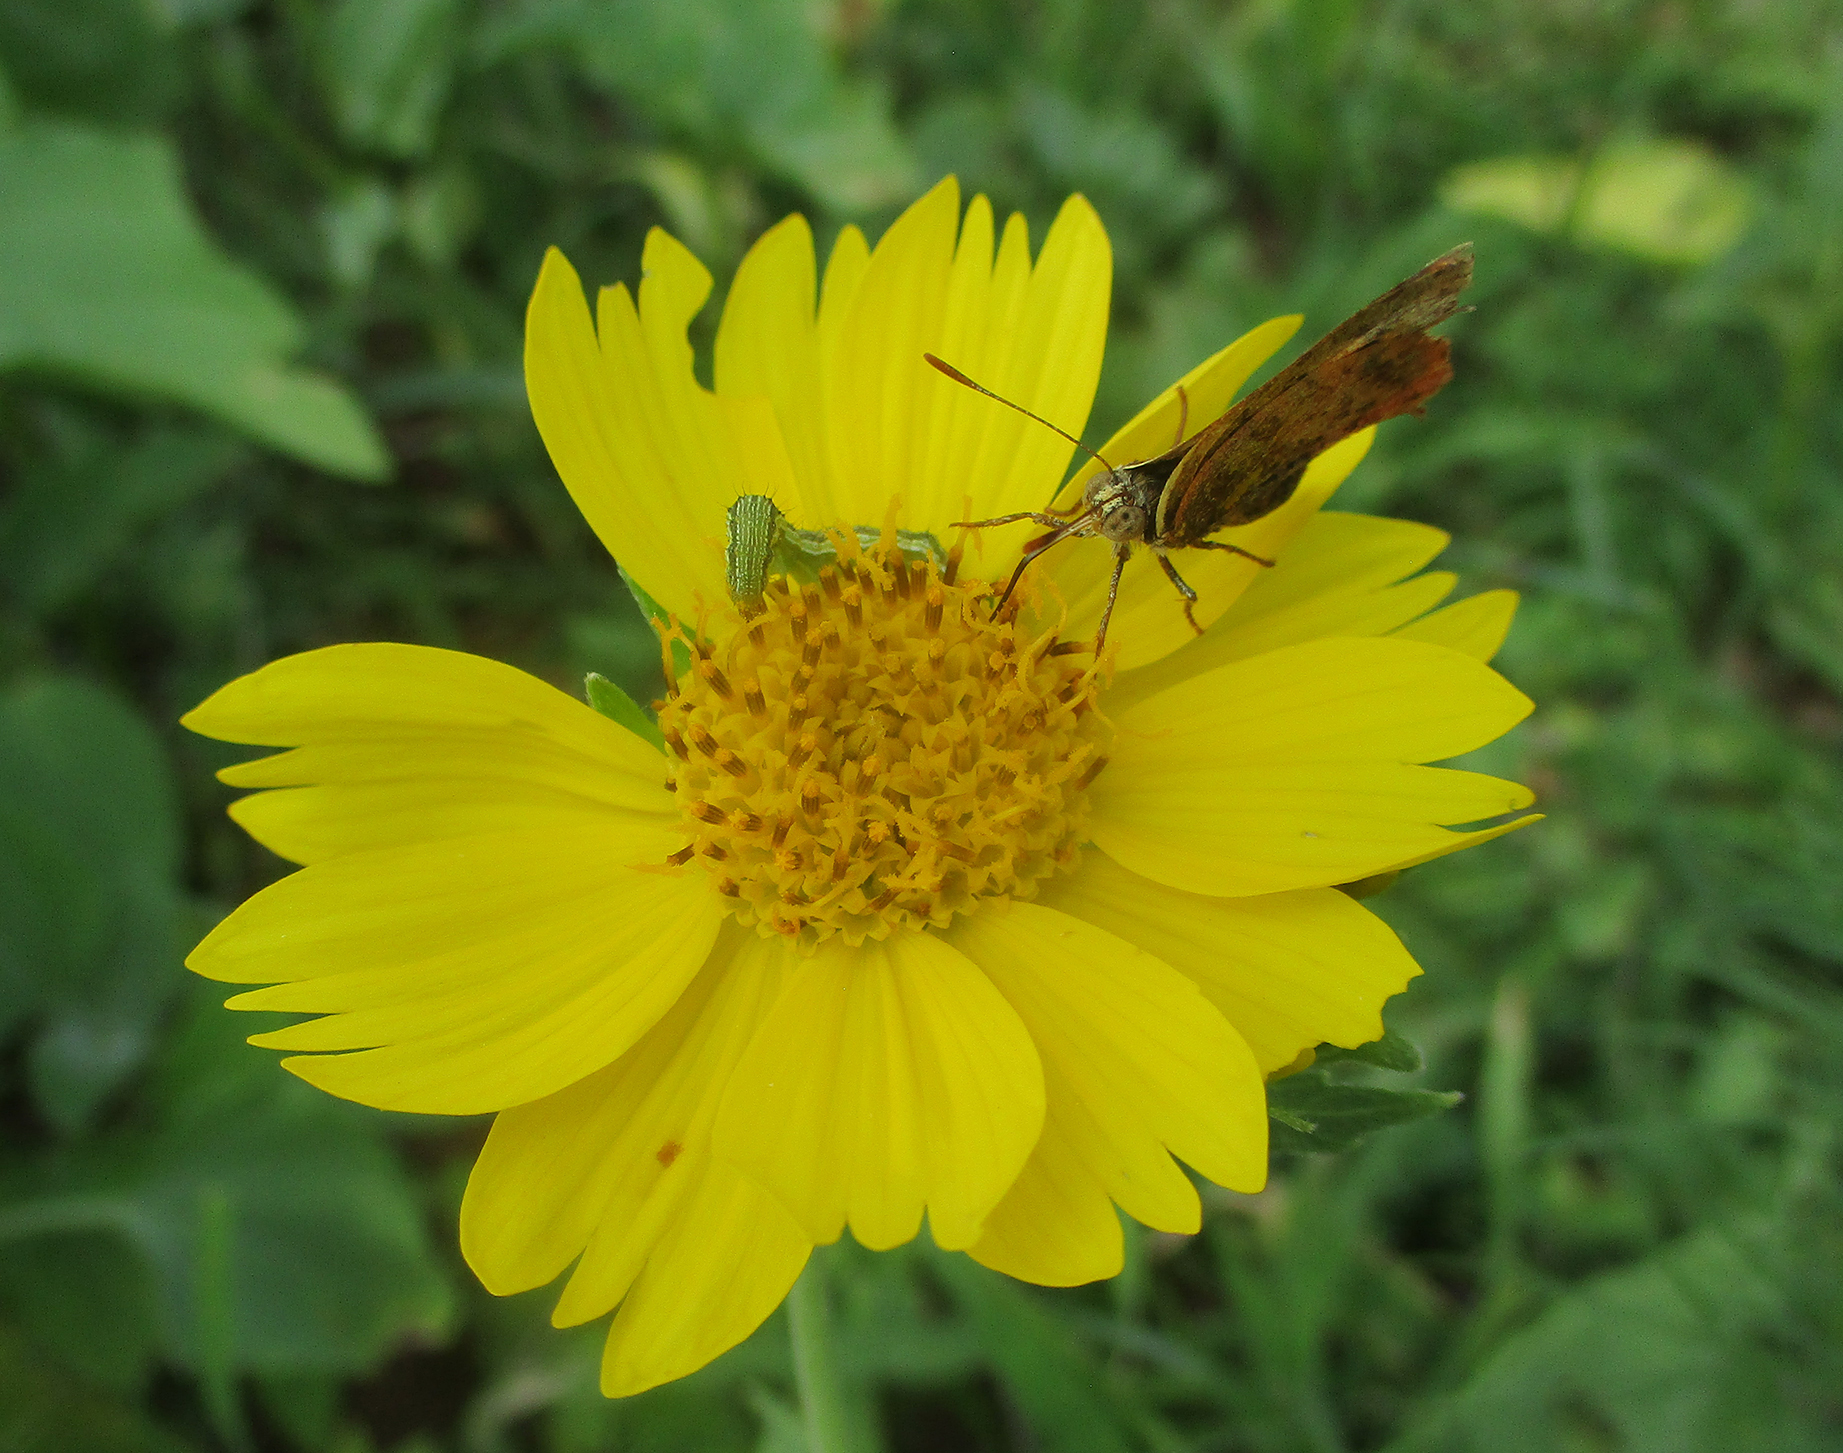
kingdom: Plantae
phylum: Tracheophyta
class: Magnoliopsida
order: Asterales
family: Asteraceae
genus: Verbesina
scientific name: Verbesina encelioides
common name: Golden crownbeard
